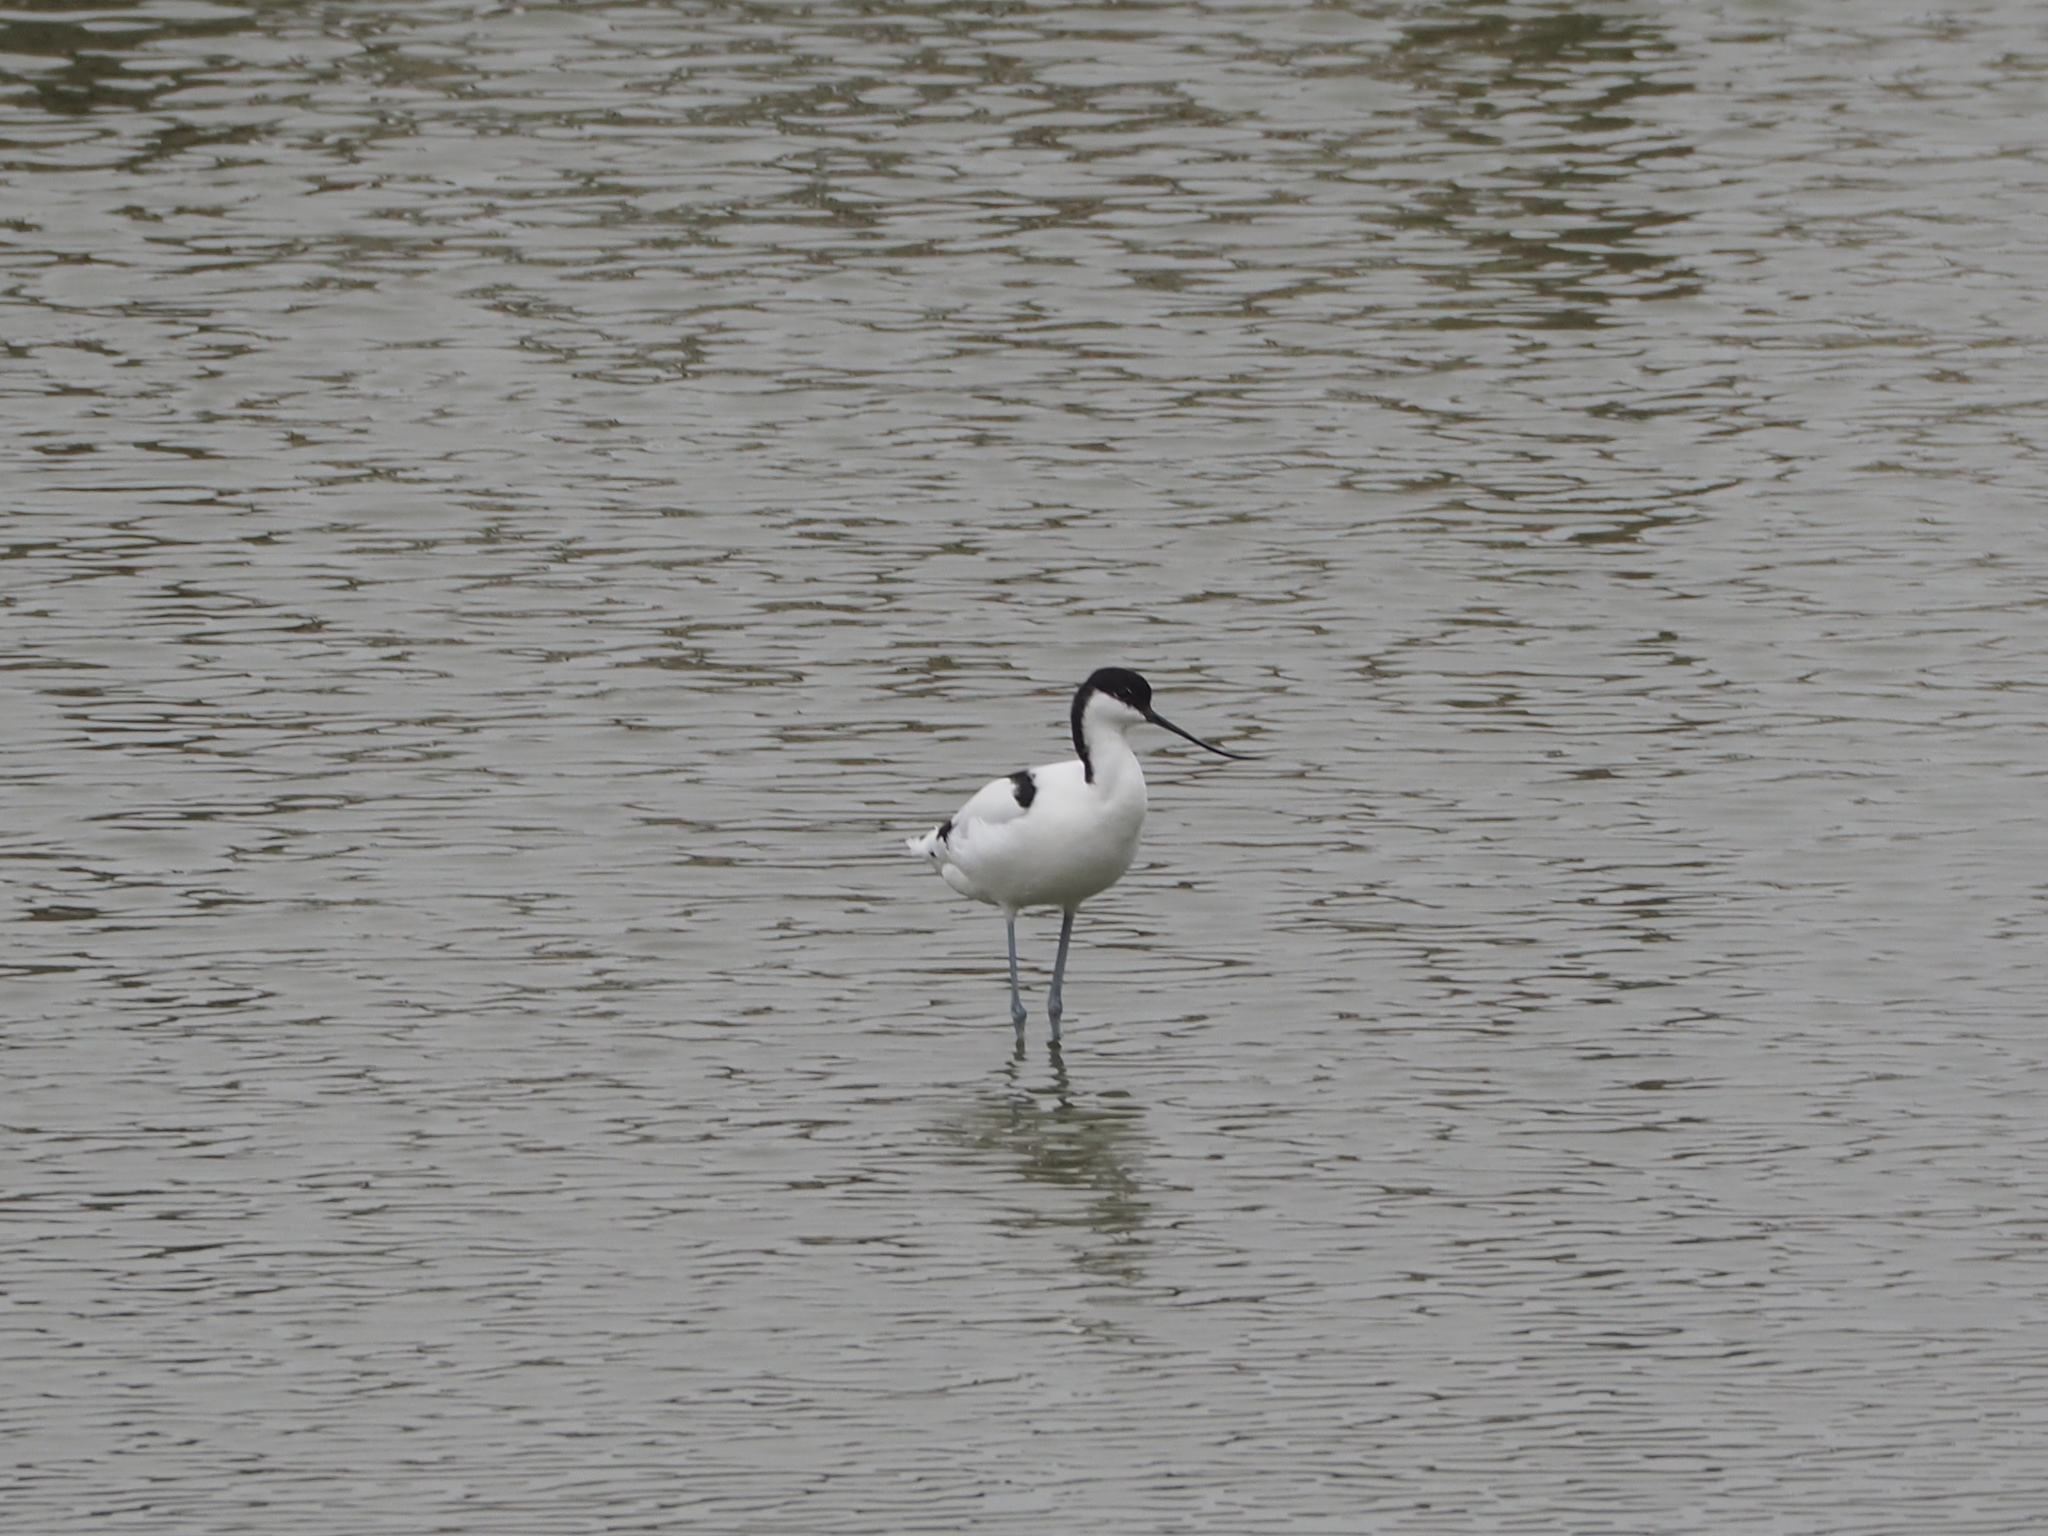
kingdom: Animalia
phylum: Chordata
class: Aves
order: Charadriiformes
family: Recurvirostridae
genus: Recurvirostra
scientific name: Recurvirostra avosetta
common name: Pied avocet
